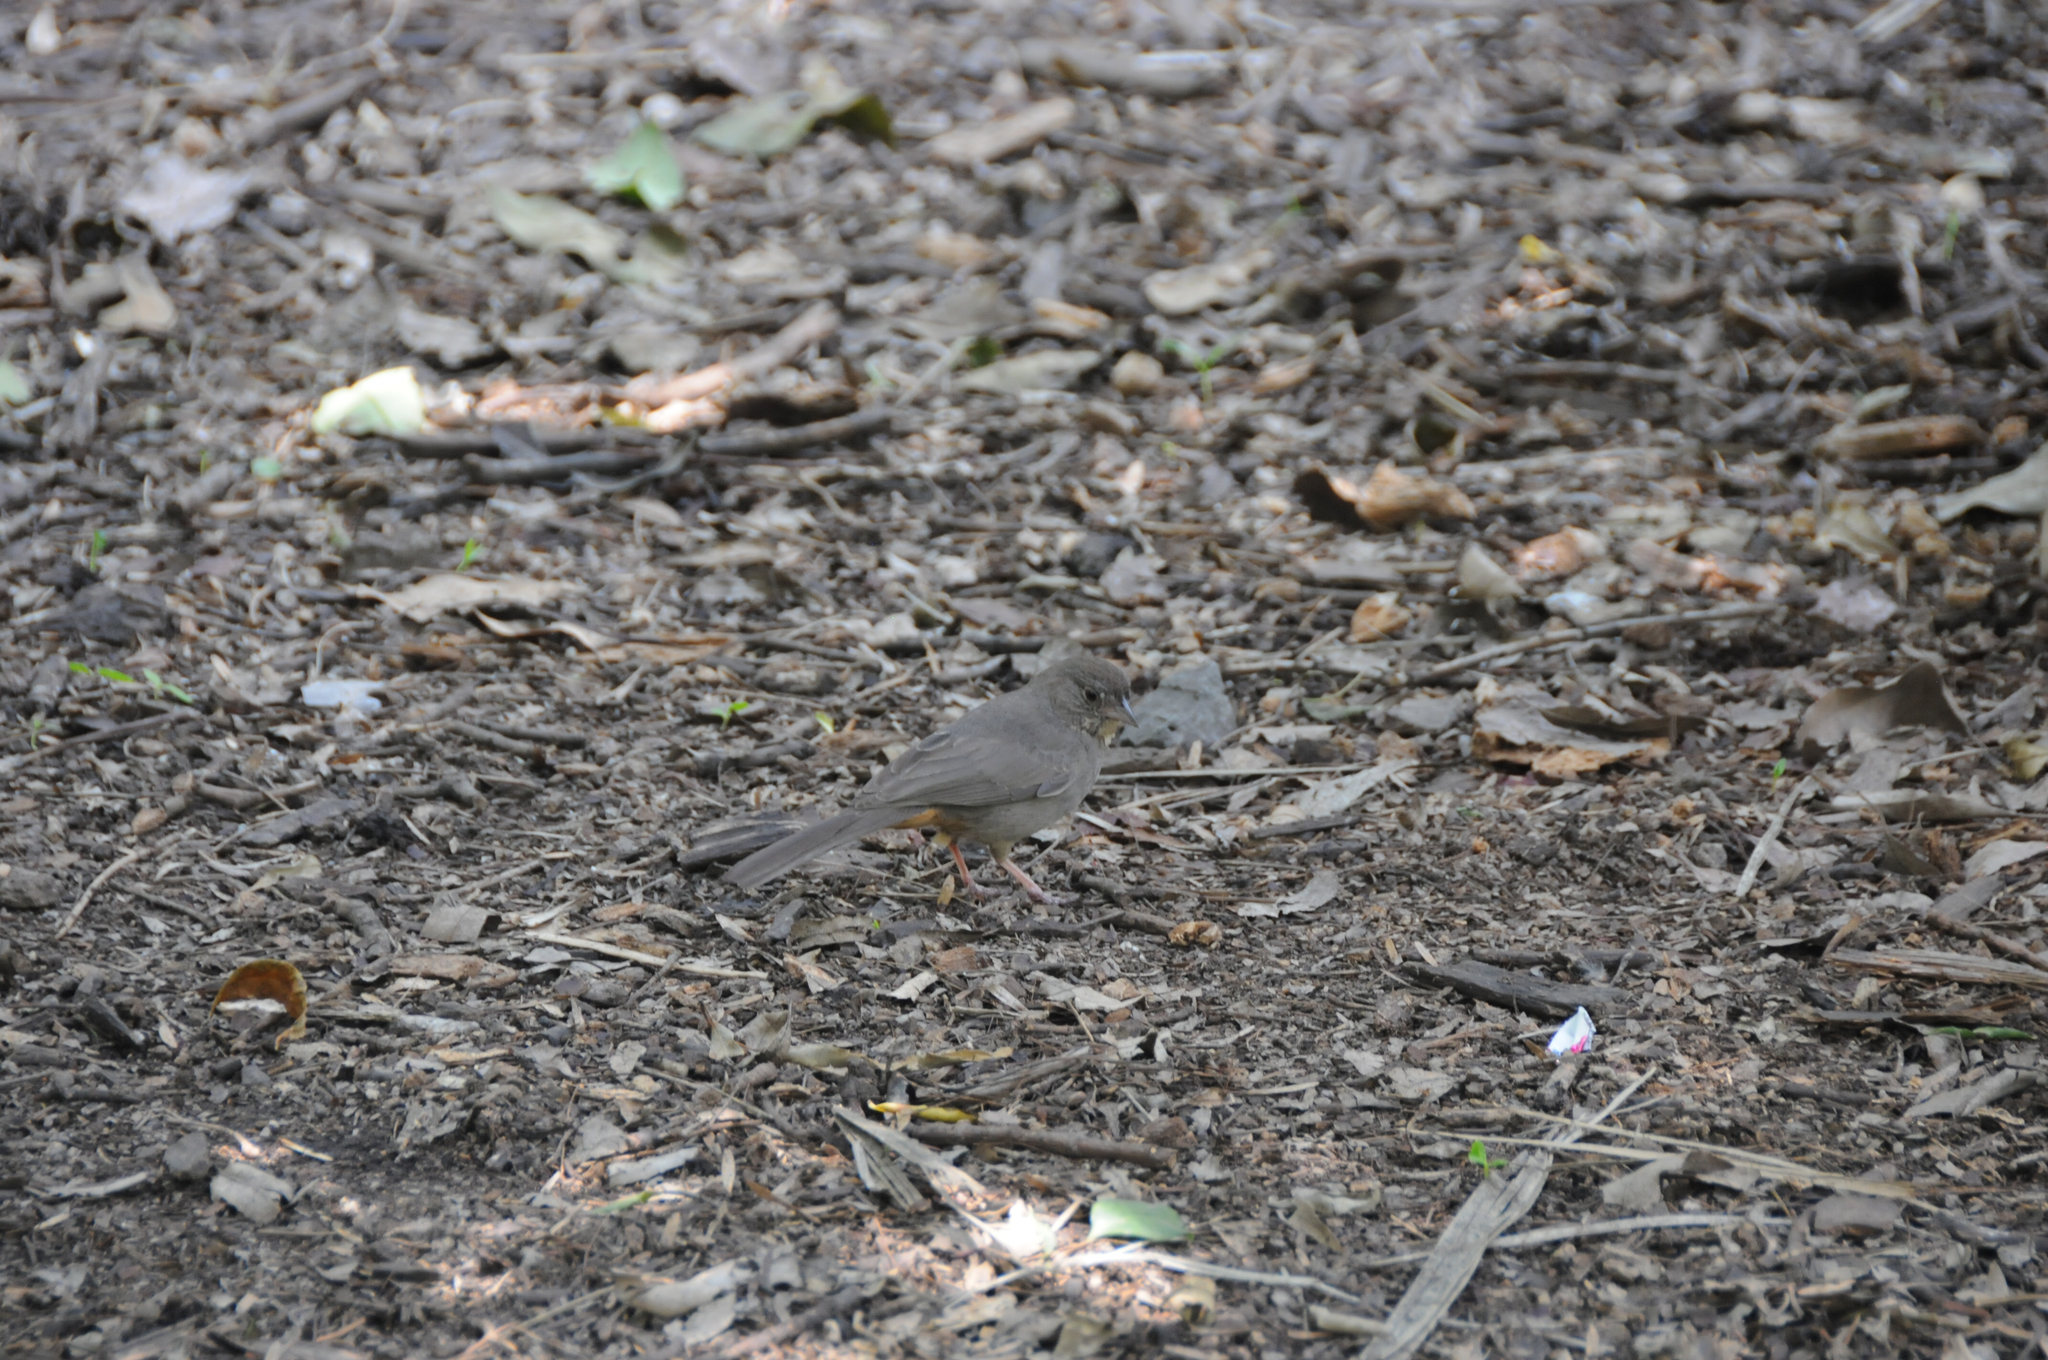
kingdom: Animalia
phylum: Chordata
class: Aves
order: Passeriformes
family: Passerellidae
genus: Melozone
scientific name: Melozone fusca
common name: Canyon towhee
